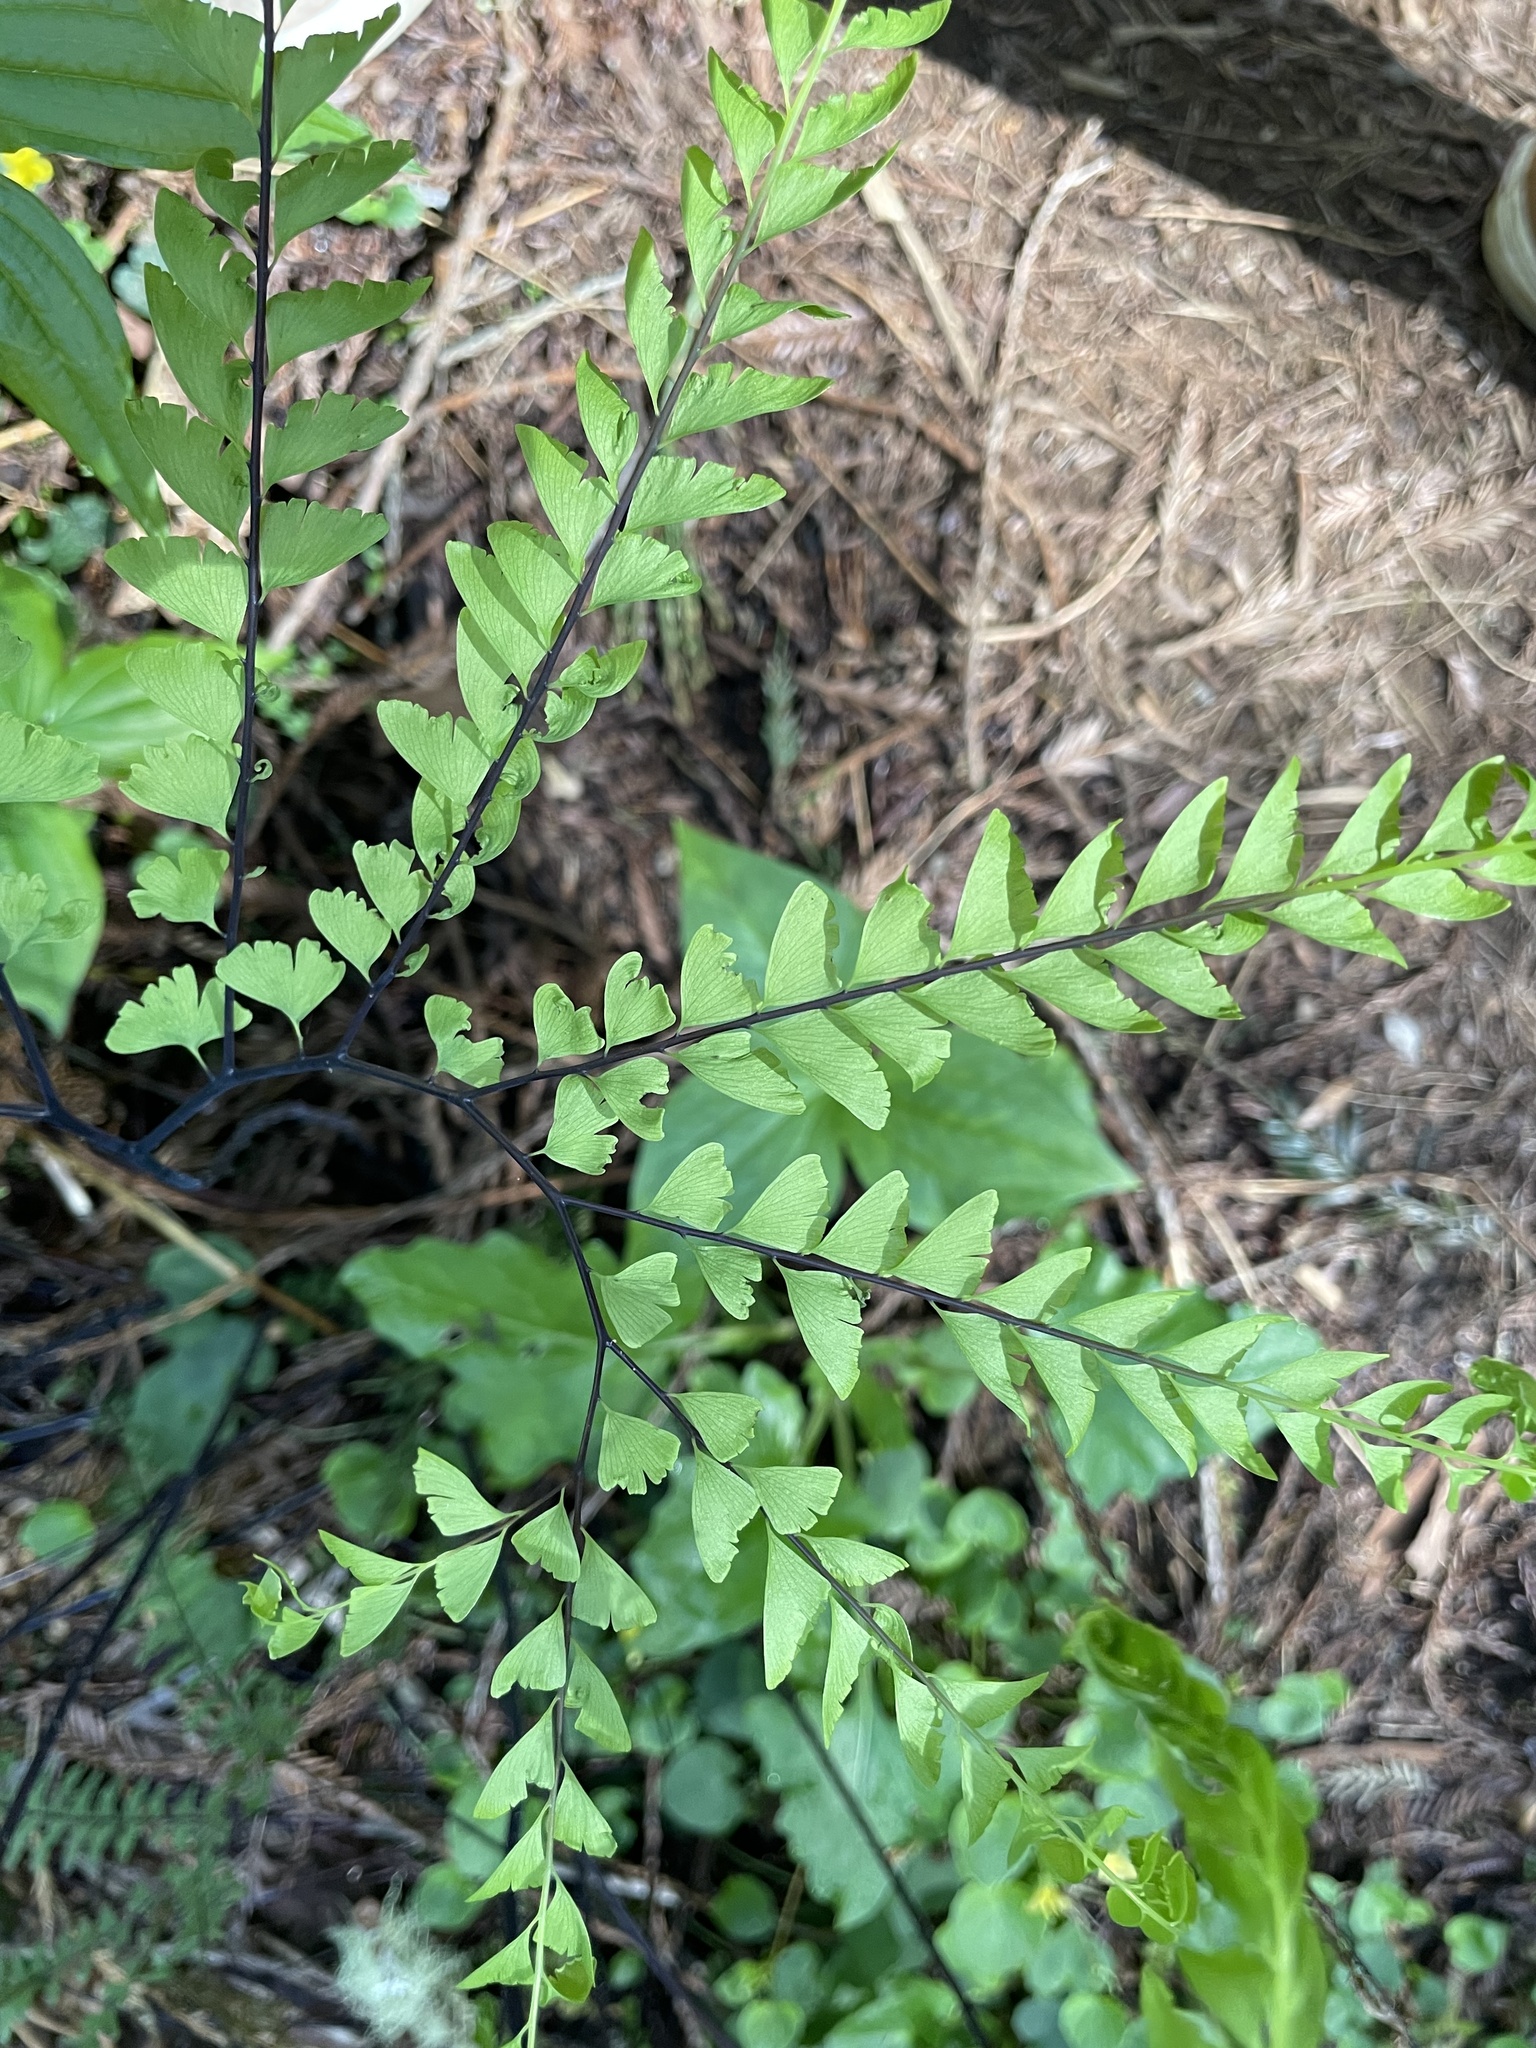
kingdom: Plantae
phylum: Tracheophyta
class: Polypodiopsida
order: Polypodiales
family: Pteridaceae
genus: Adiantum
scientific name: Adiantum aleuticum
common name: Aleutian maidenhair fern
